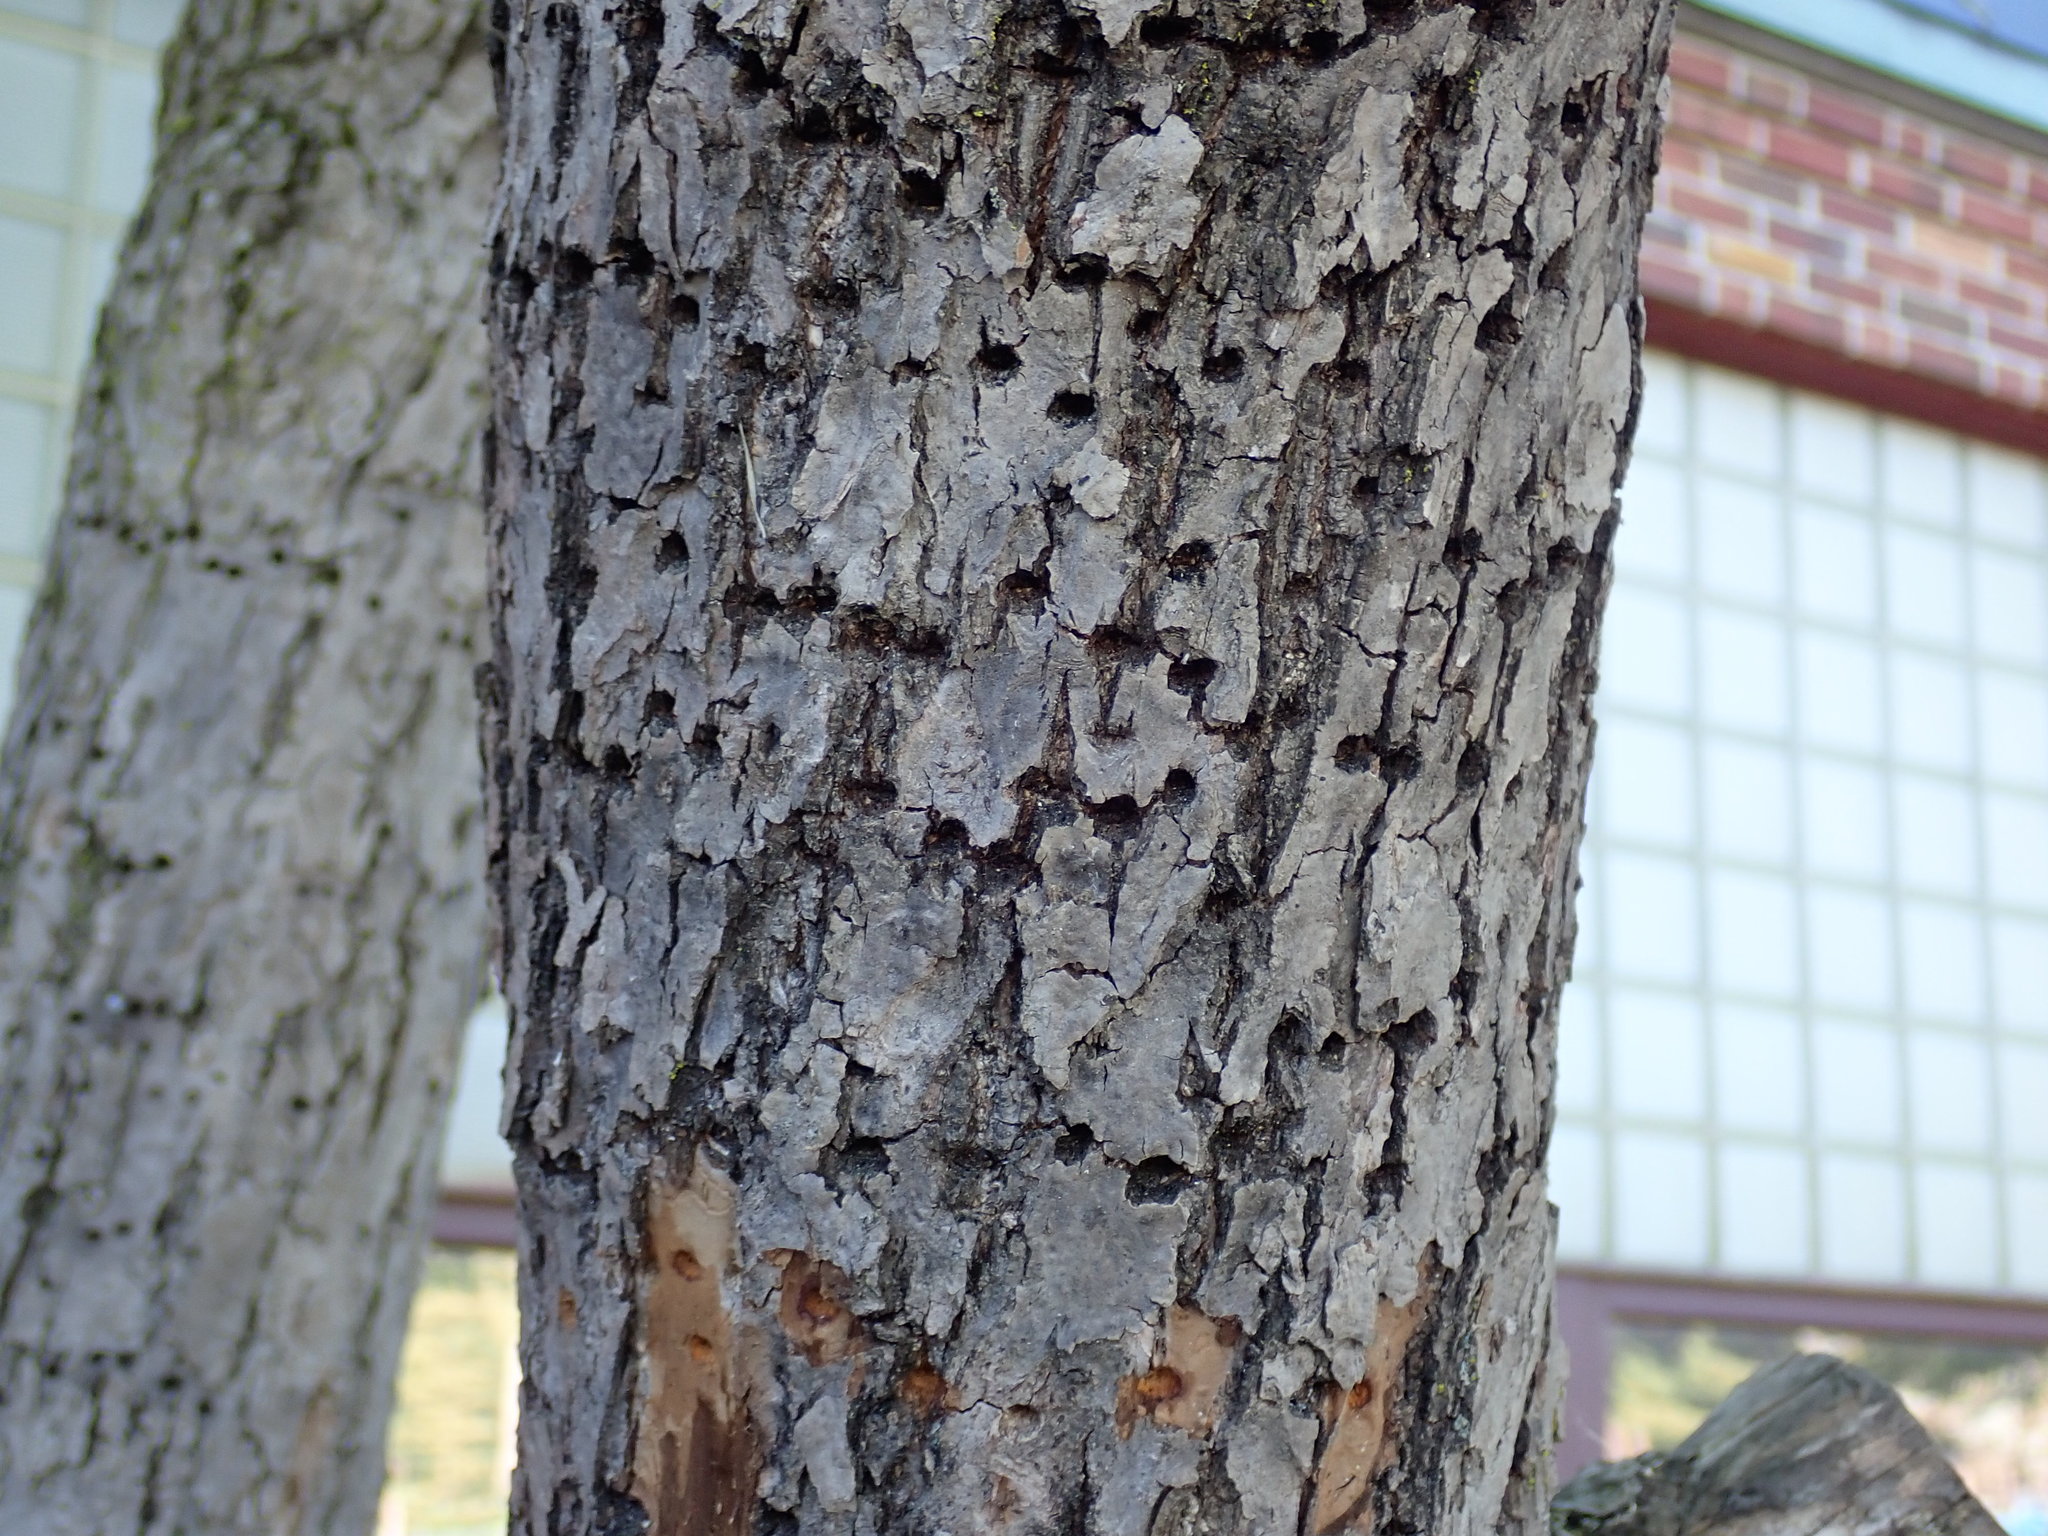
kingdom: Animalia
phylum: Chordata
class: Aves
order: Piciformes
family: Picidae
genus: Sphyrapicus
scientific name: Sphyrapicus varius
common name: Yellow-bellied sapsucker
